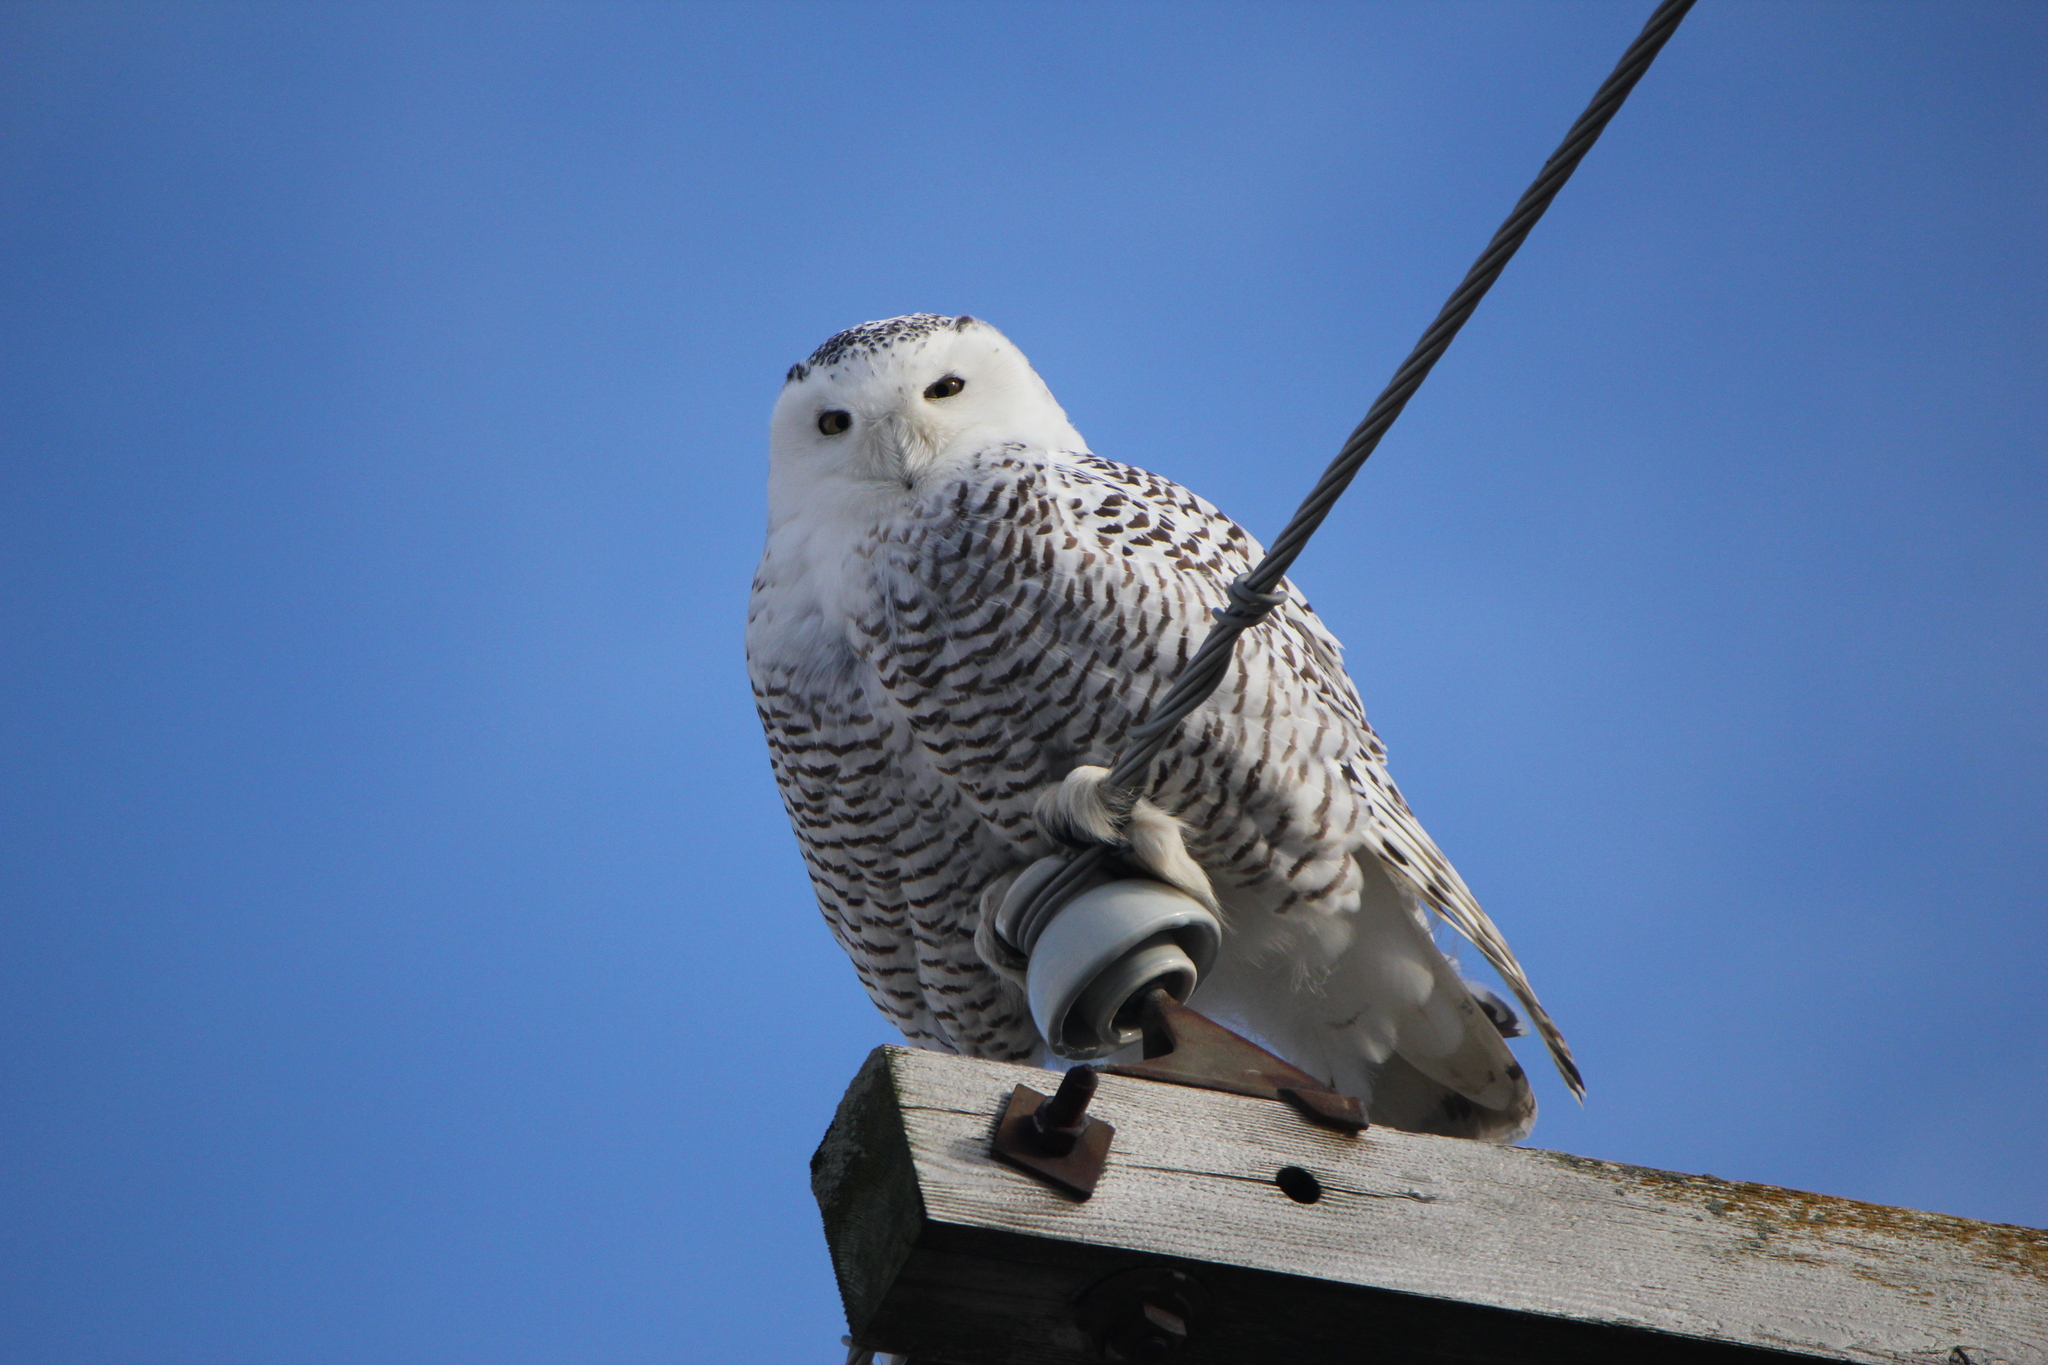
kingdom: Animalia
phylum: Chordata
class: Aves
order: Strigiformes
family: Strigidae
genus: Bubo
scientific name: Bubo scandiacus
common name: Snowy owl
